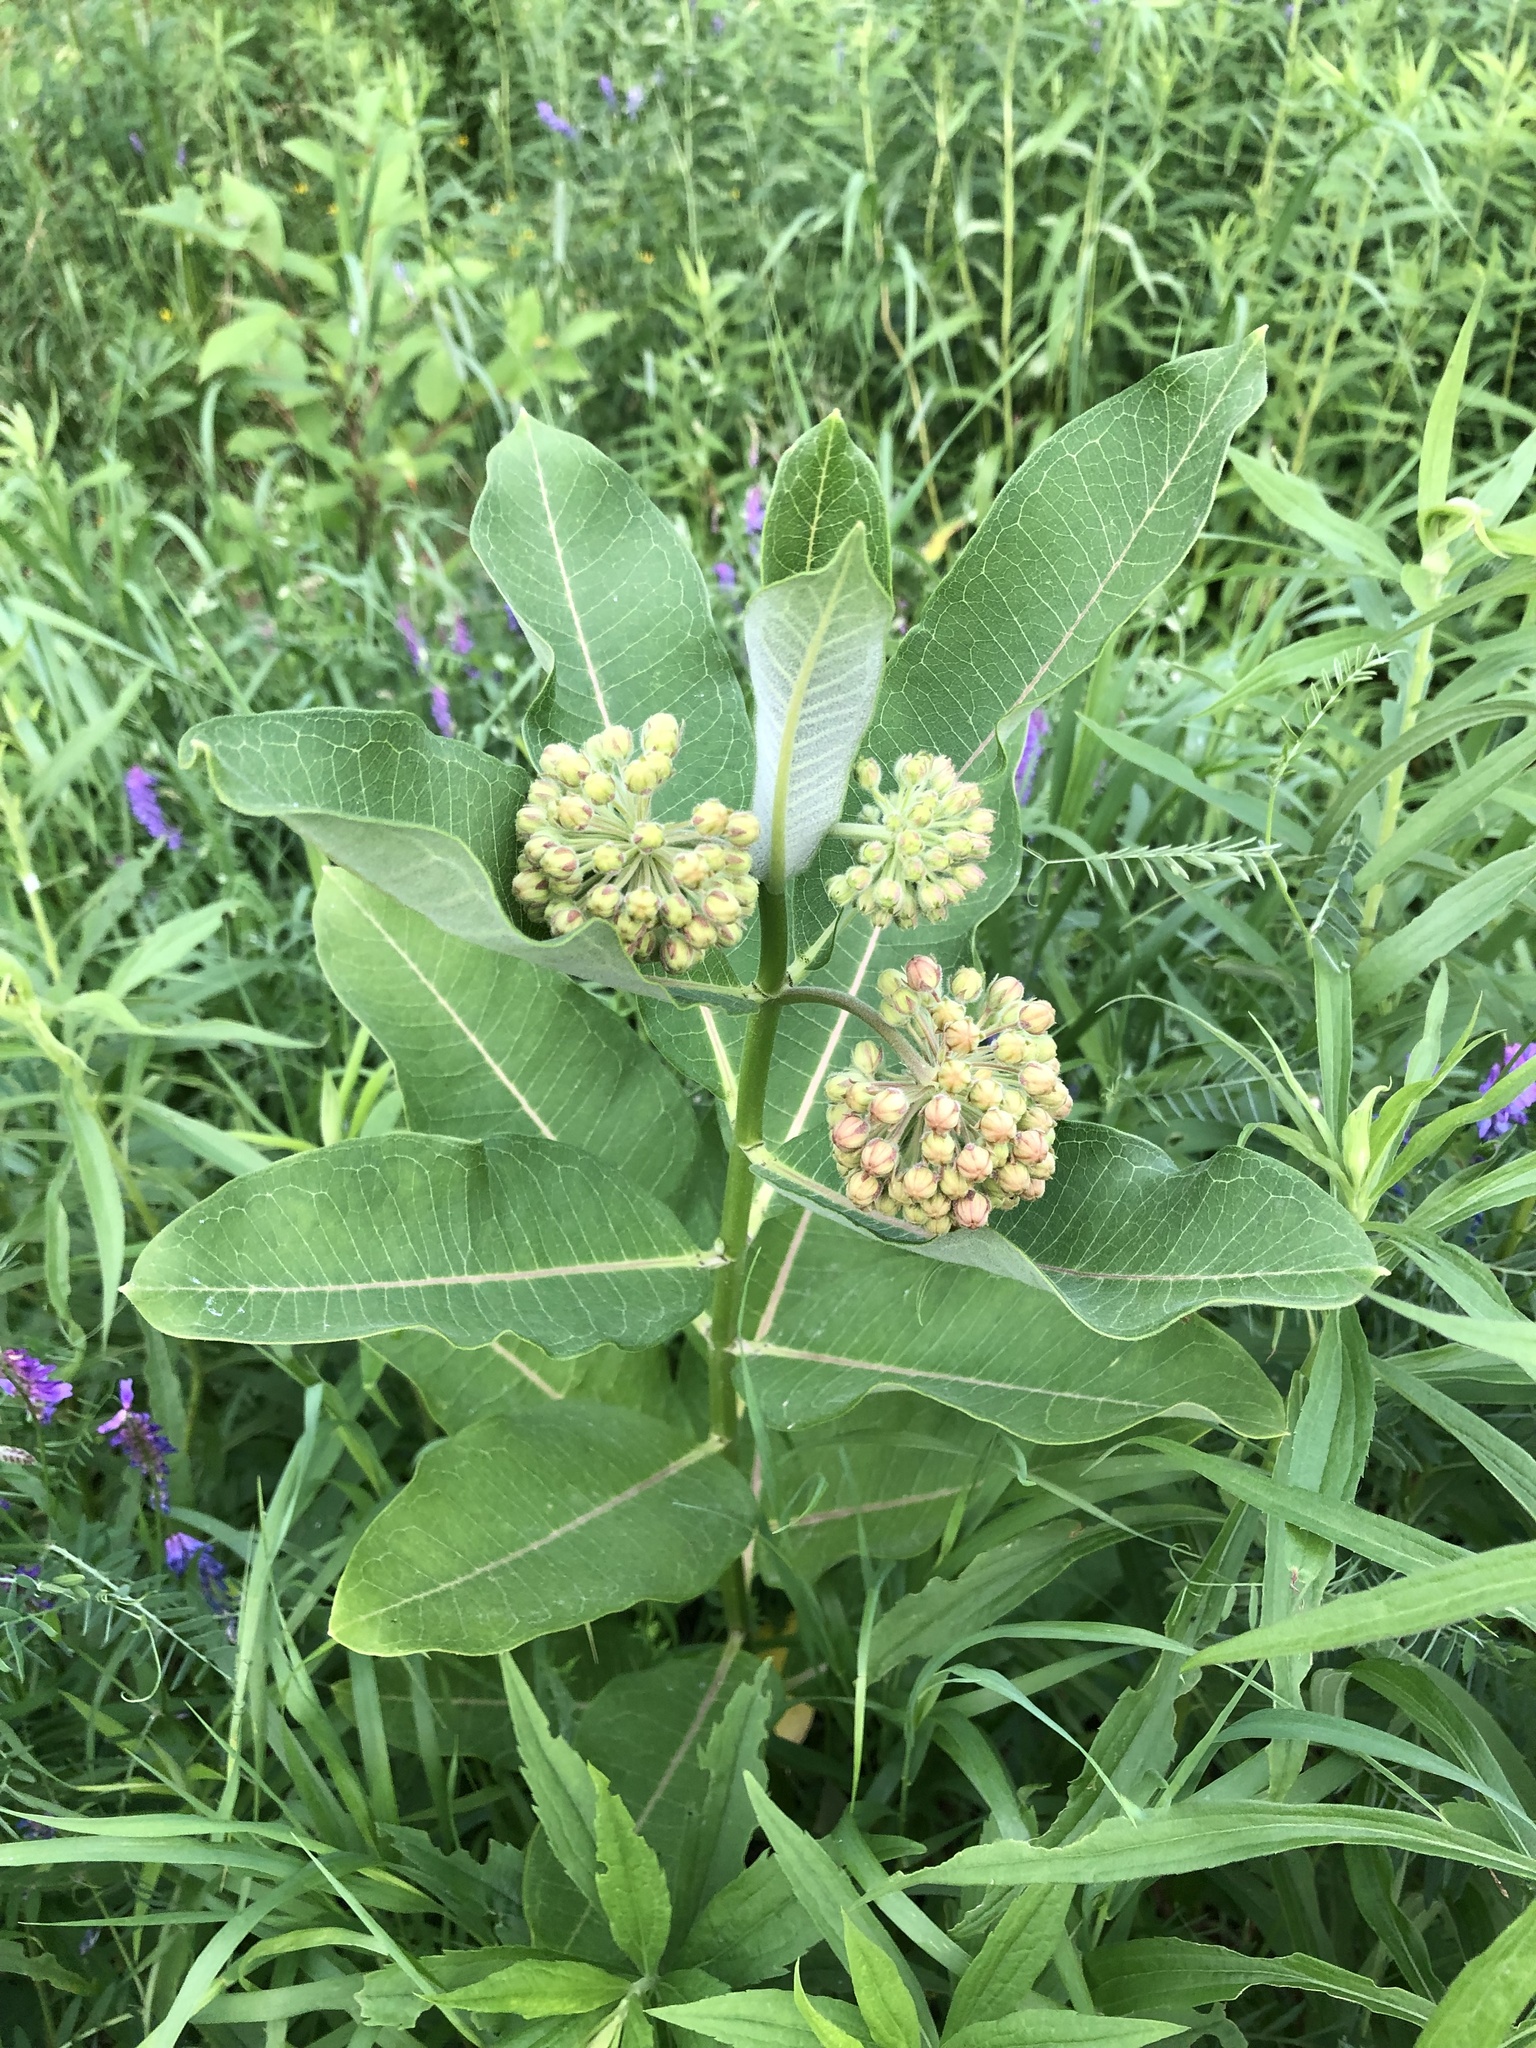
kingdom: Plantae
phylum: Tracheophyta
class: Magnoliopsida
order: Gentianales
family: Apocynaceae
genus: Asclepias
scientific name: Asclepias syriaca
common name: Common milkweed
